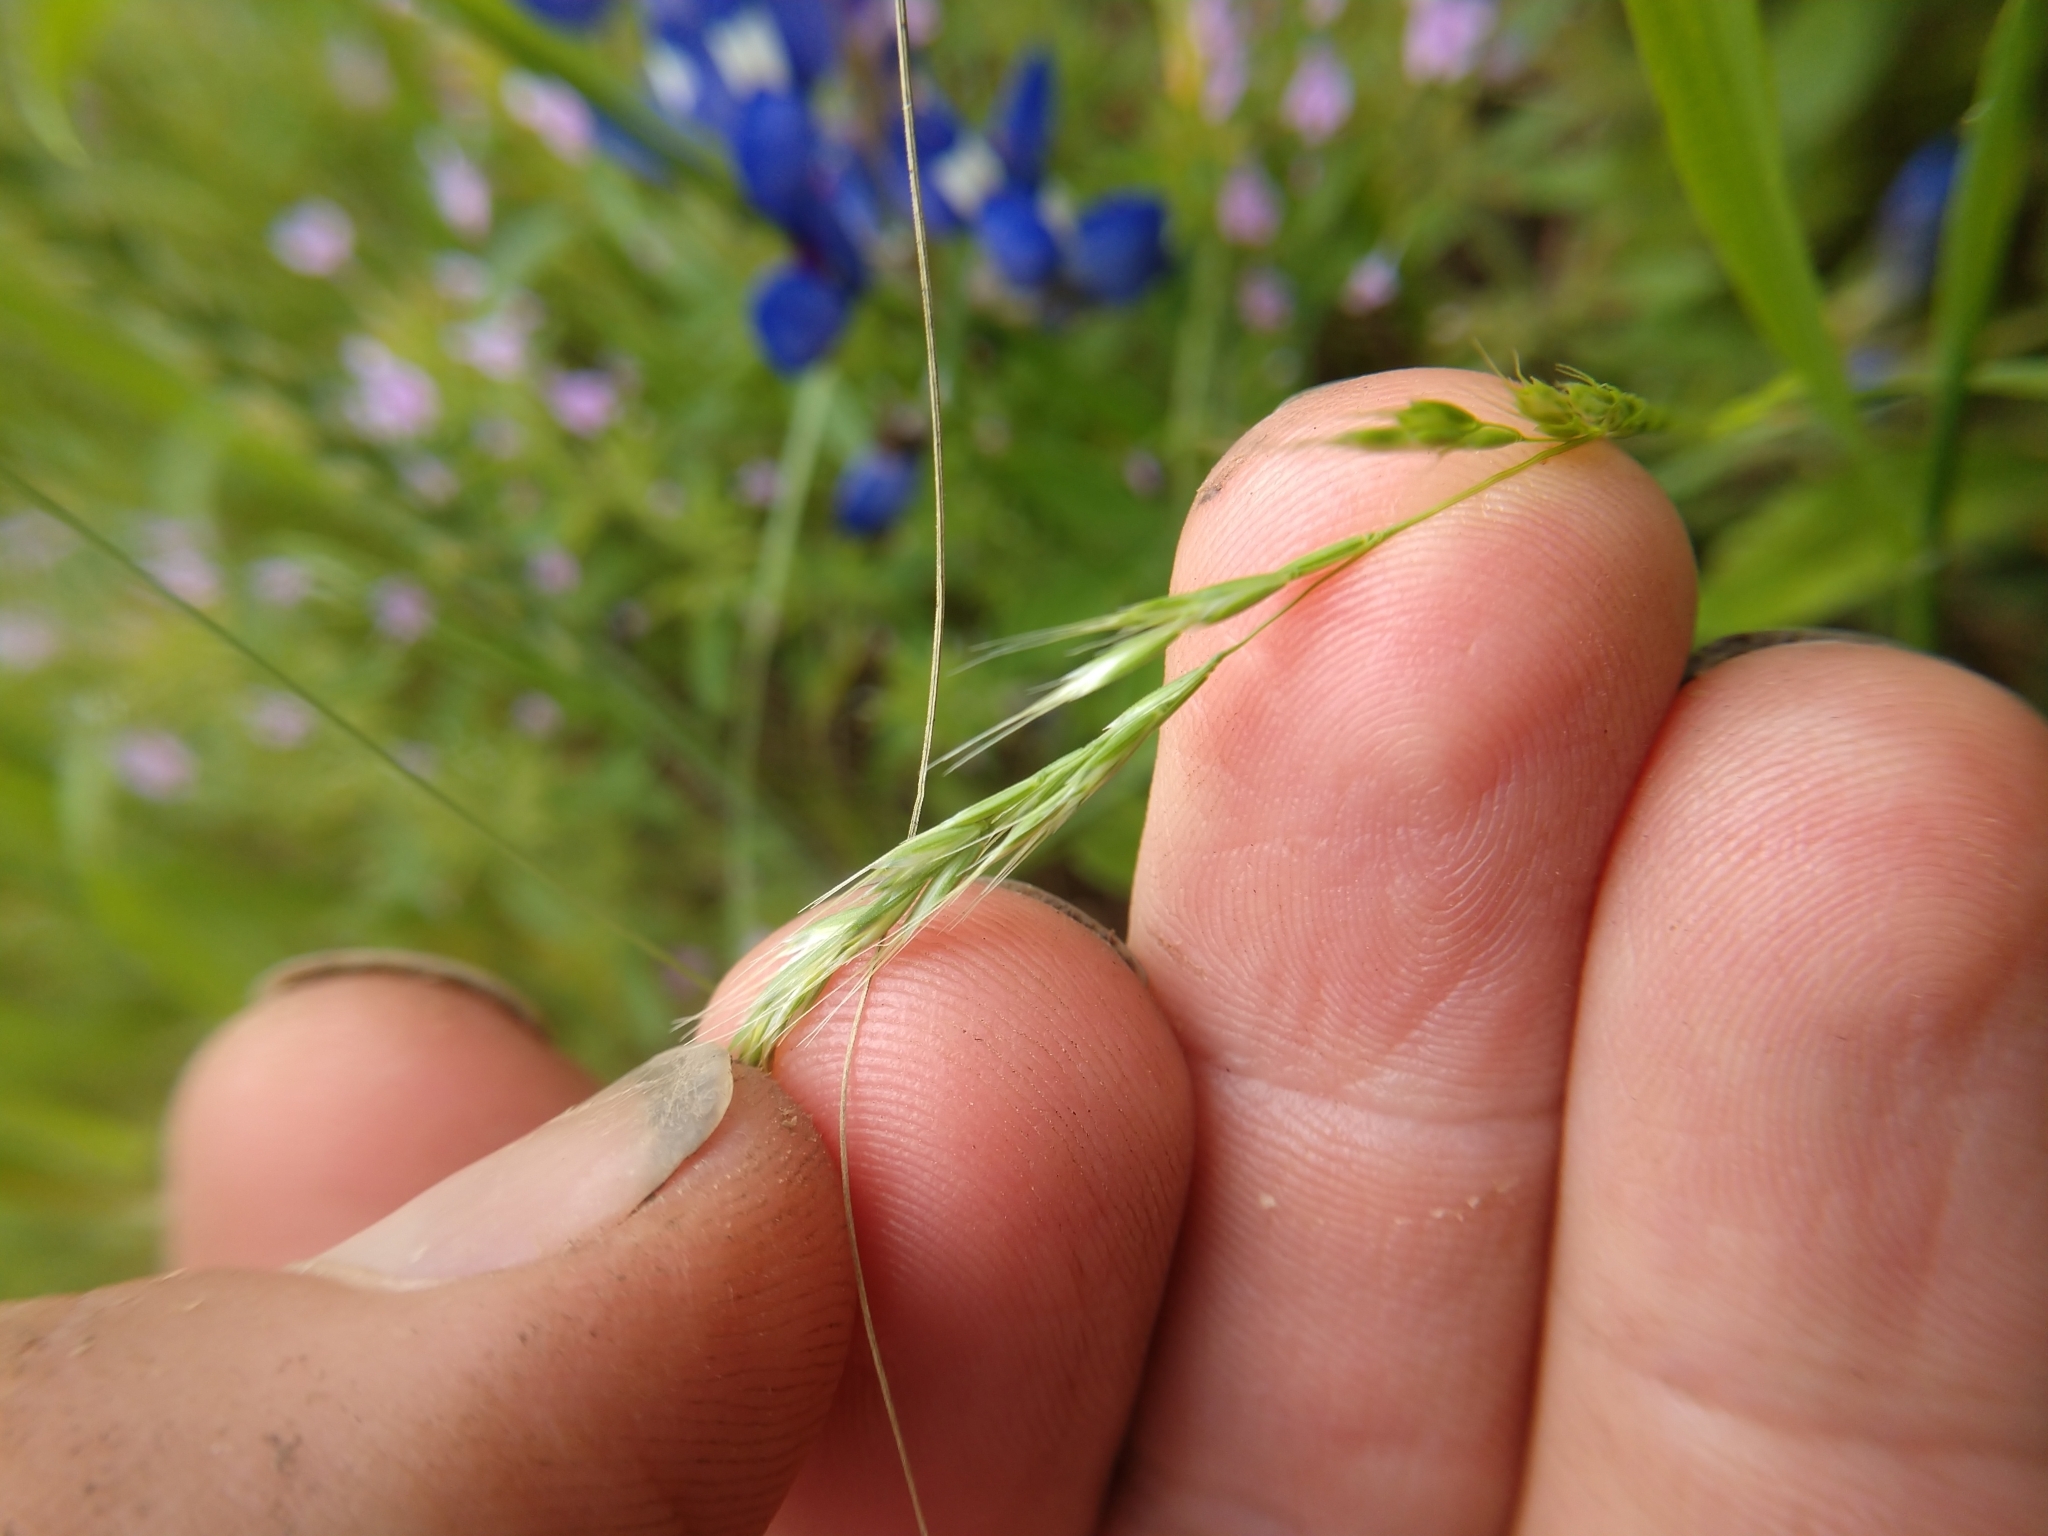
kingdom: Plantae
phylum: Tracheophyta
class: Liliopsida
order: Poales
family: Poaceae
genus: Trisetum
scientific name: Trisetum interruptum
